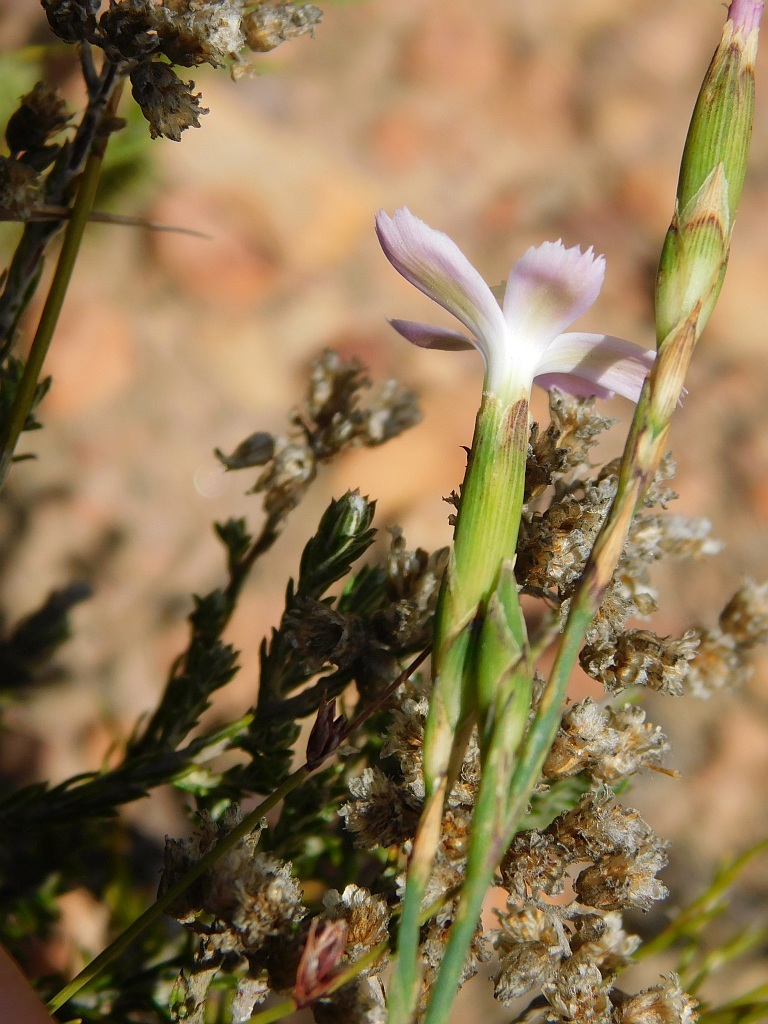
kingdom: Plantae
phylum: Tracheophyta
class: Magnoliopsida
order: Caryophyllales
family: Caryophyllaceae
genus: Dianthus
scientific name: Dianthus albens
